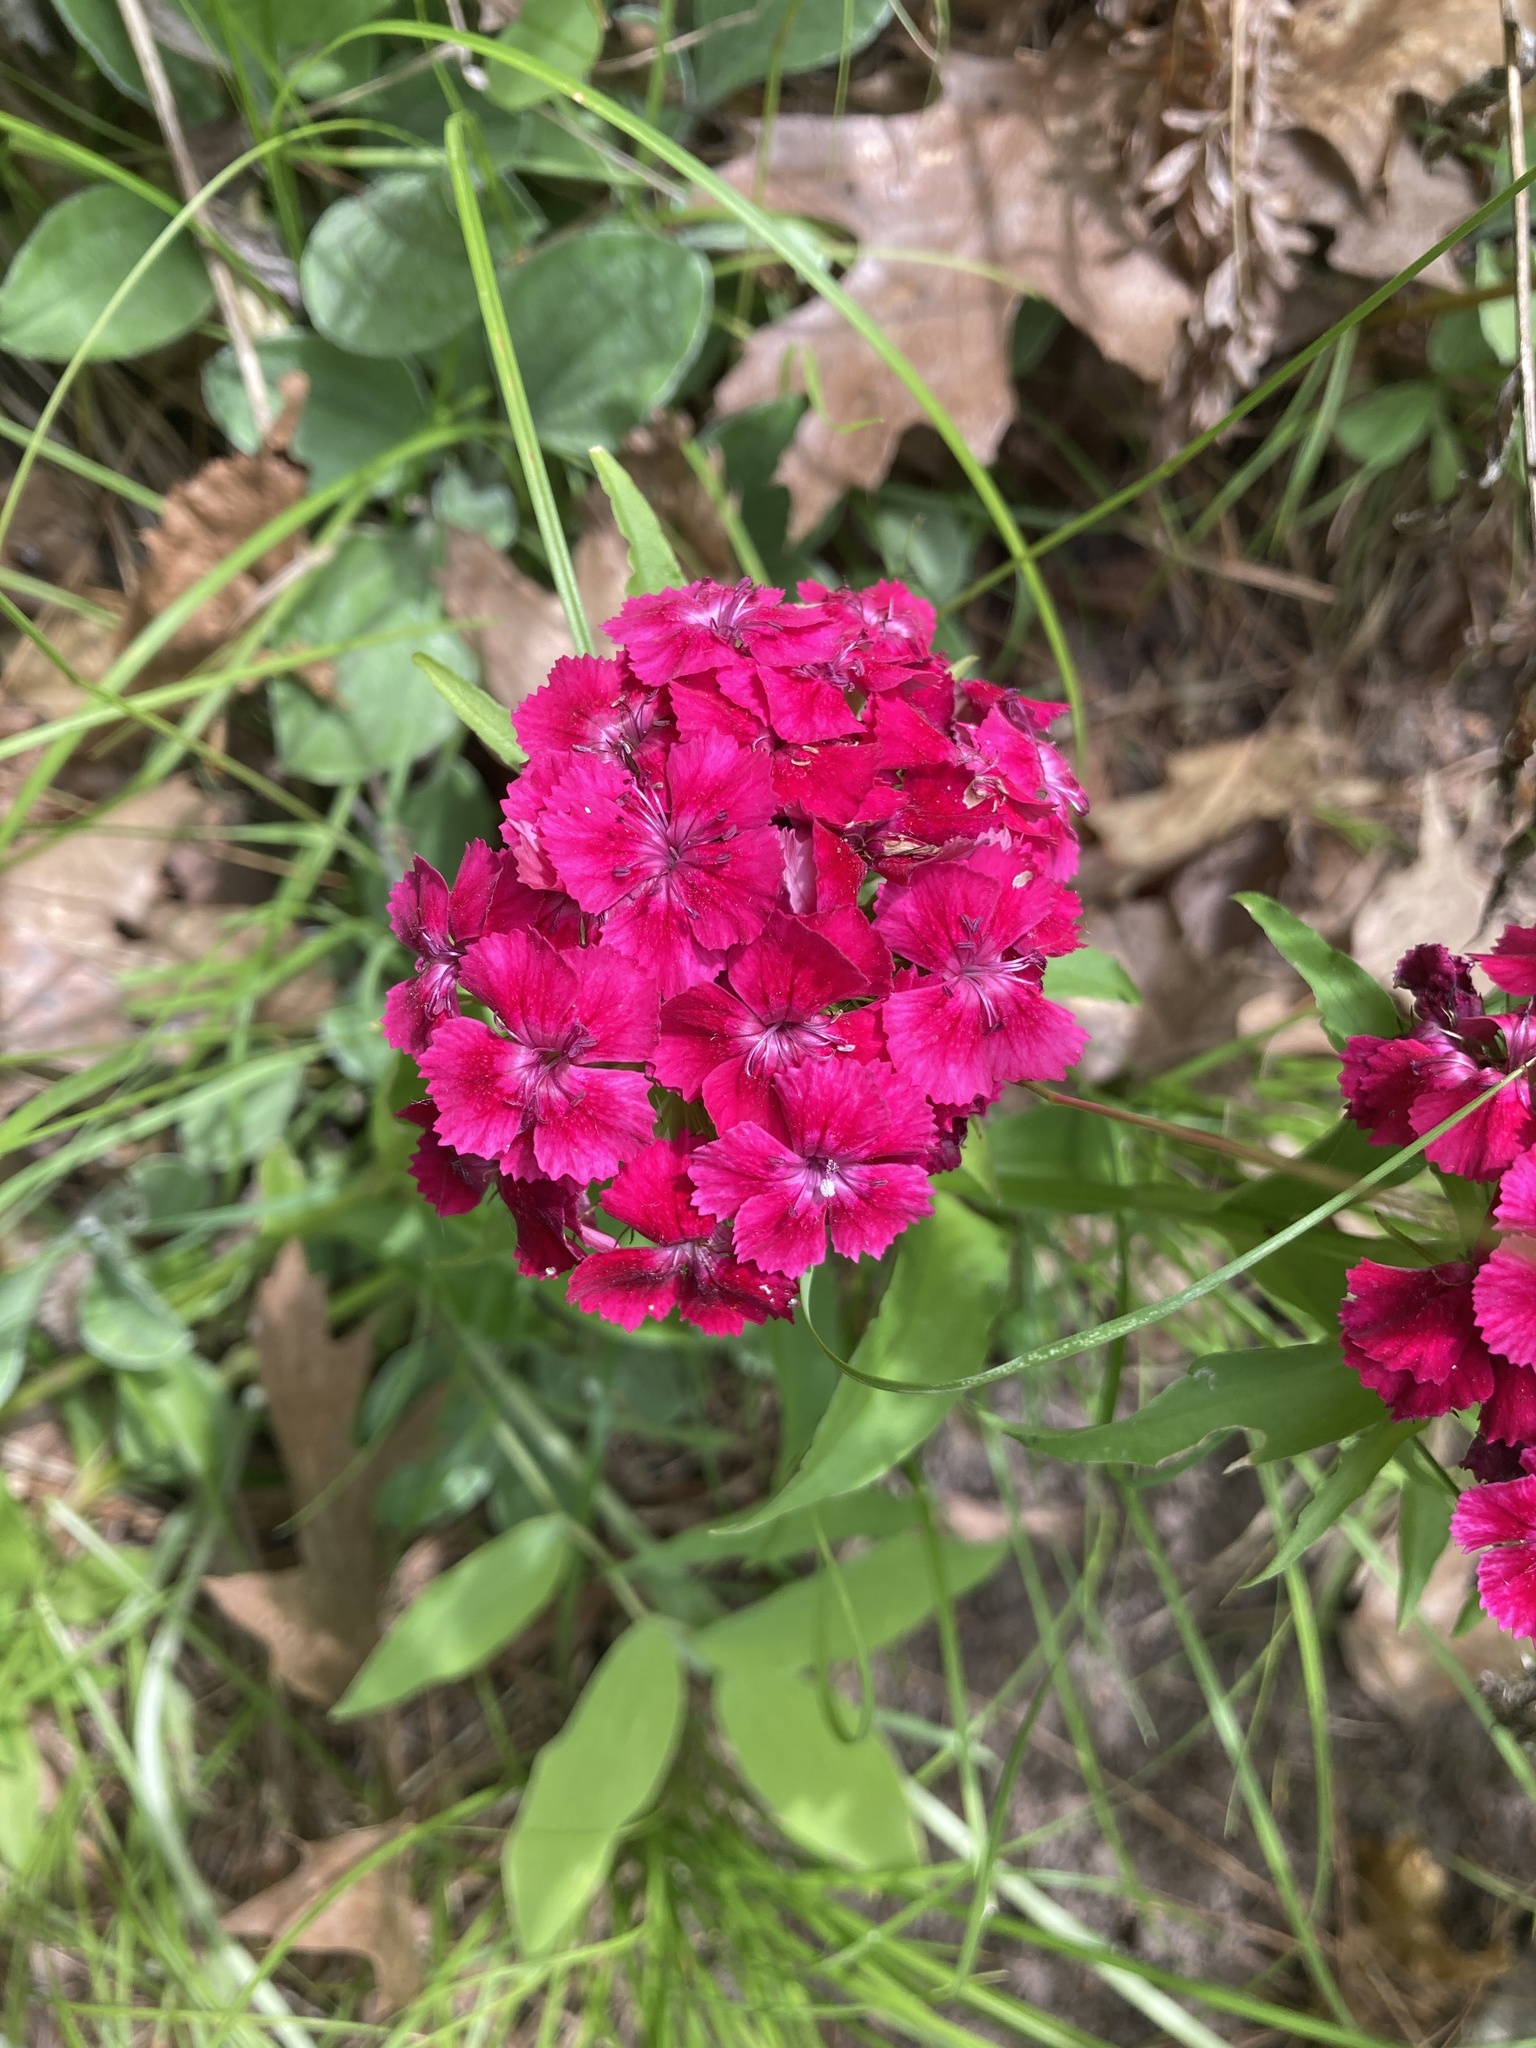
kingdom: Plantae
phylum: Tracheophyta
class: Magnoliopsida
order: Caryophyllales
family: Caryophyllaceae
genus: Dianthus
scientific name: Dianthus barbatus
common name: Sweet-william
